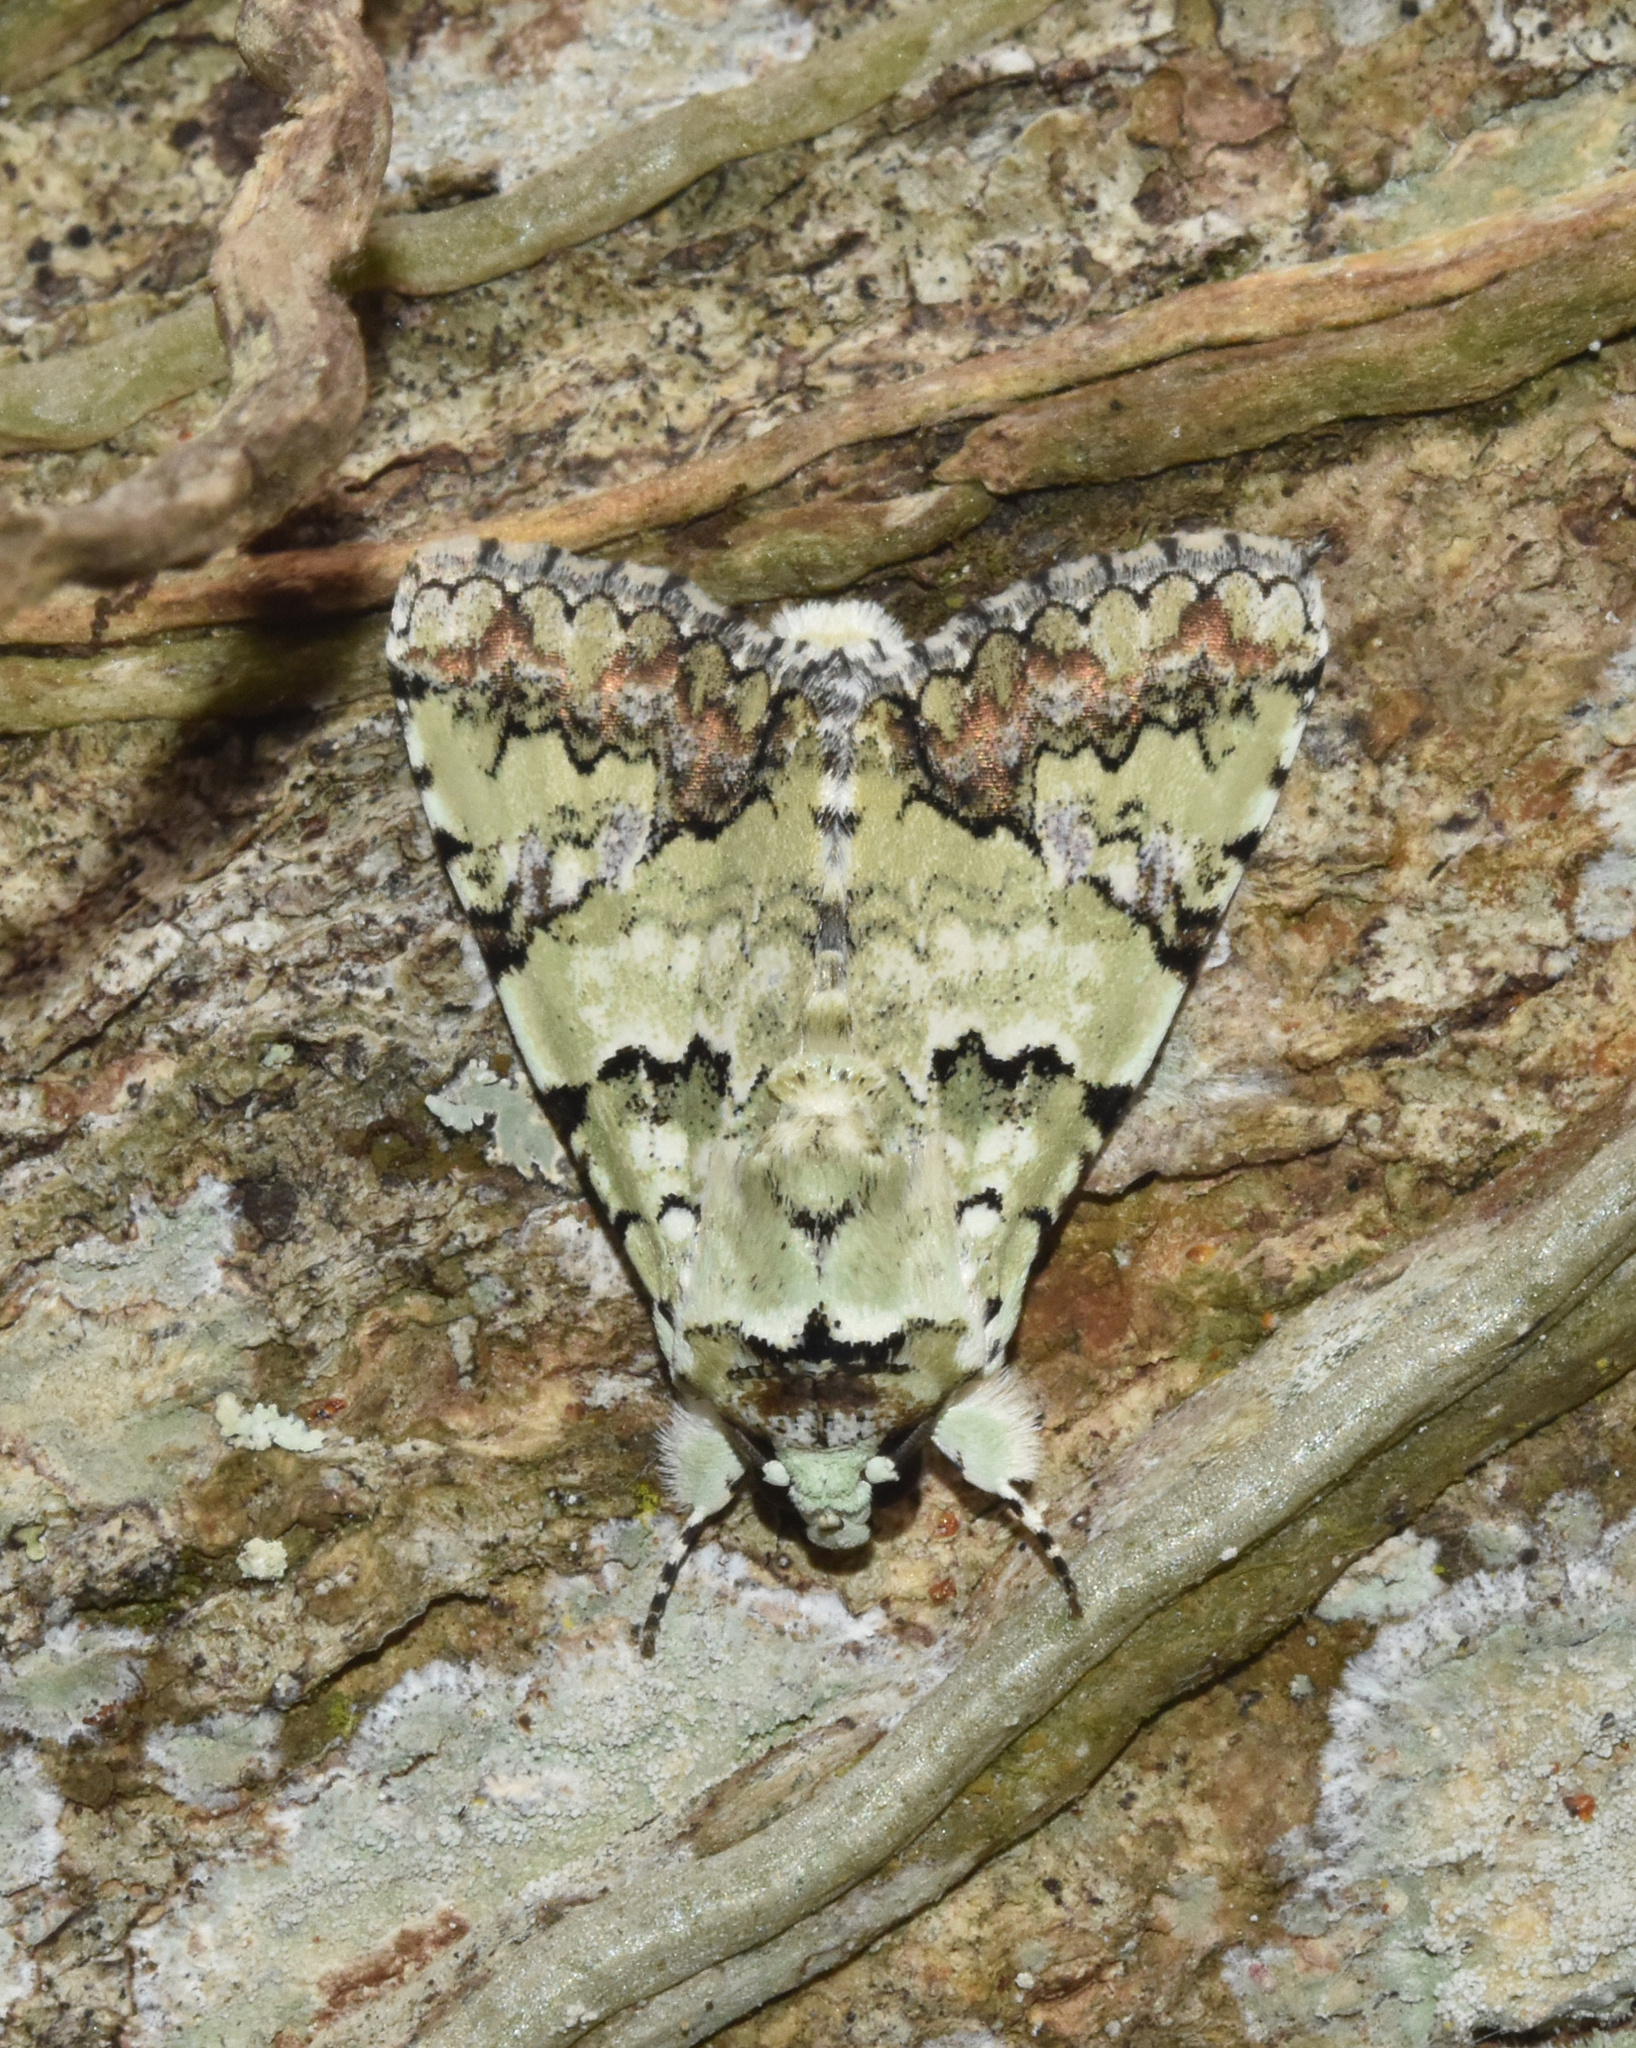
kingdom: Animalia
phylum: Arthropoda
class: Insecta
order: Lepidoptera
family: Erebidae
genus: Bamra
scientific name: Bamra marmorifera
